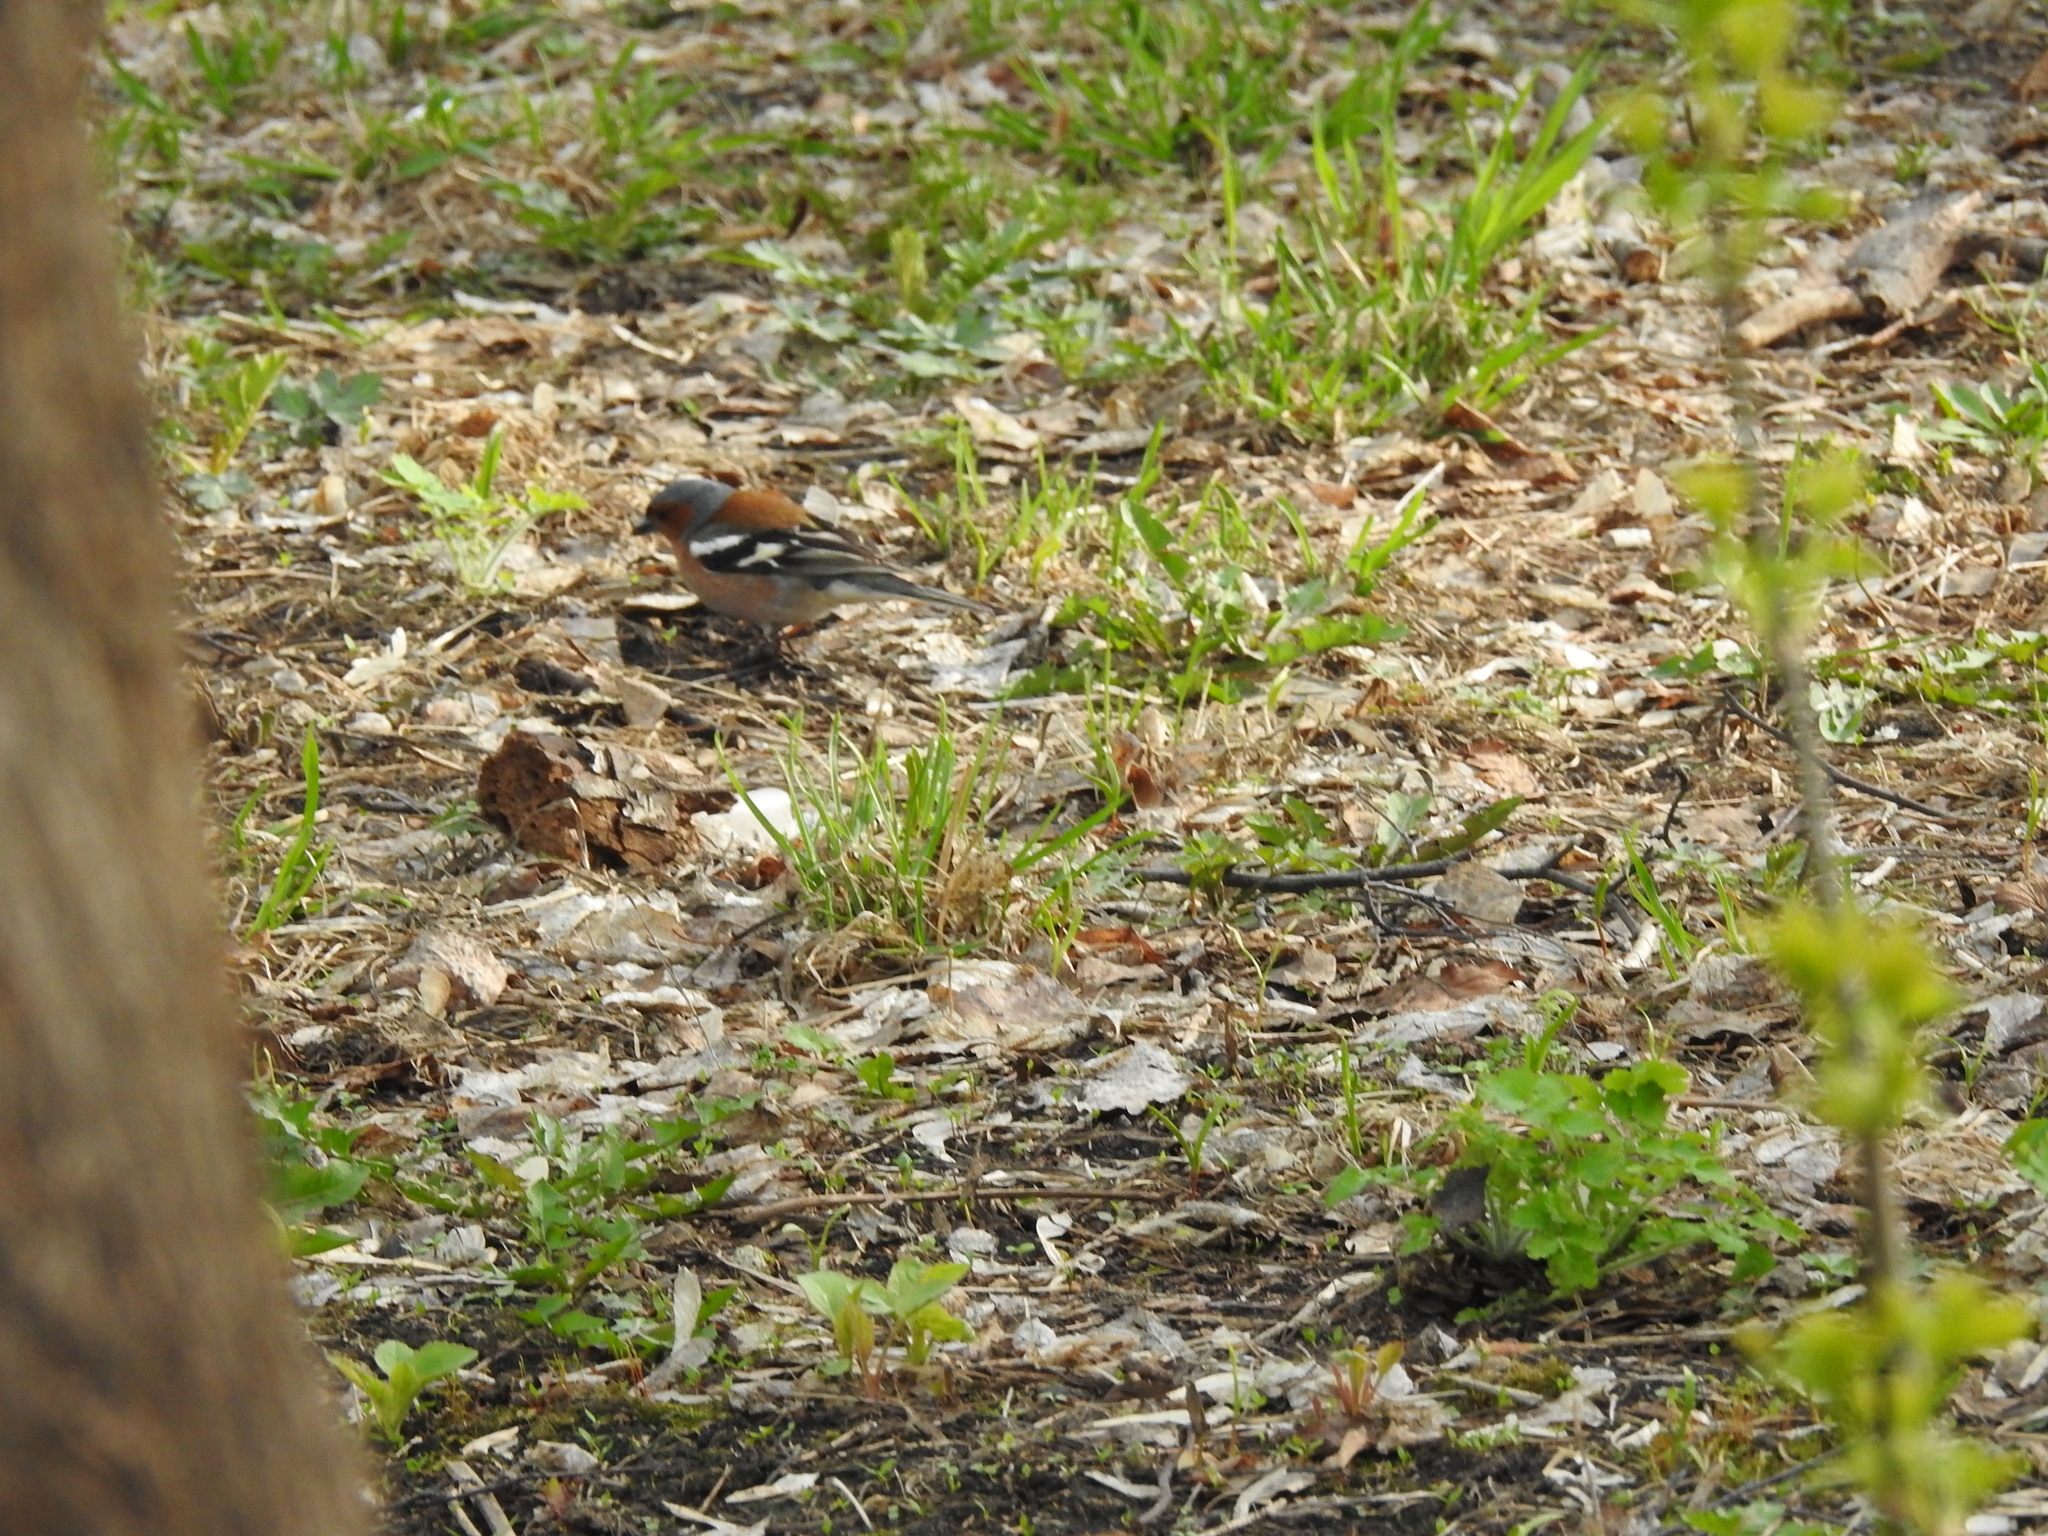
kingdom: Animalia
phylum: Chordata
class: Aves
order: Passeriformes
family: Fringillidae
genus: Fringilla
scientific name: Fringilla coelebs
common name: Common chaffinch
